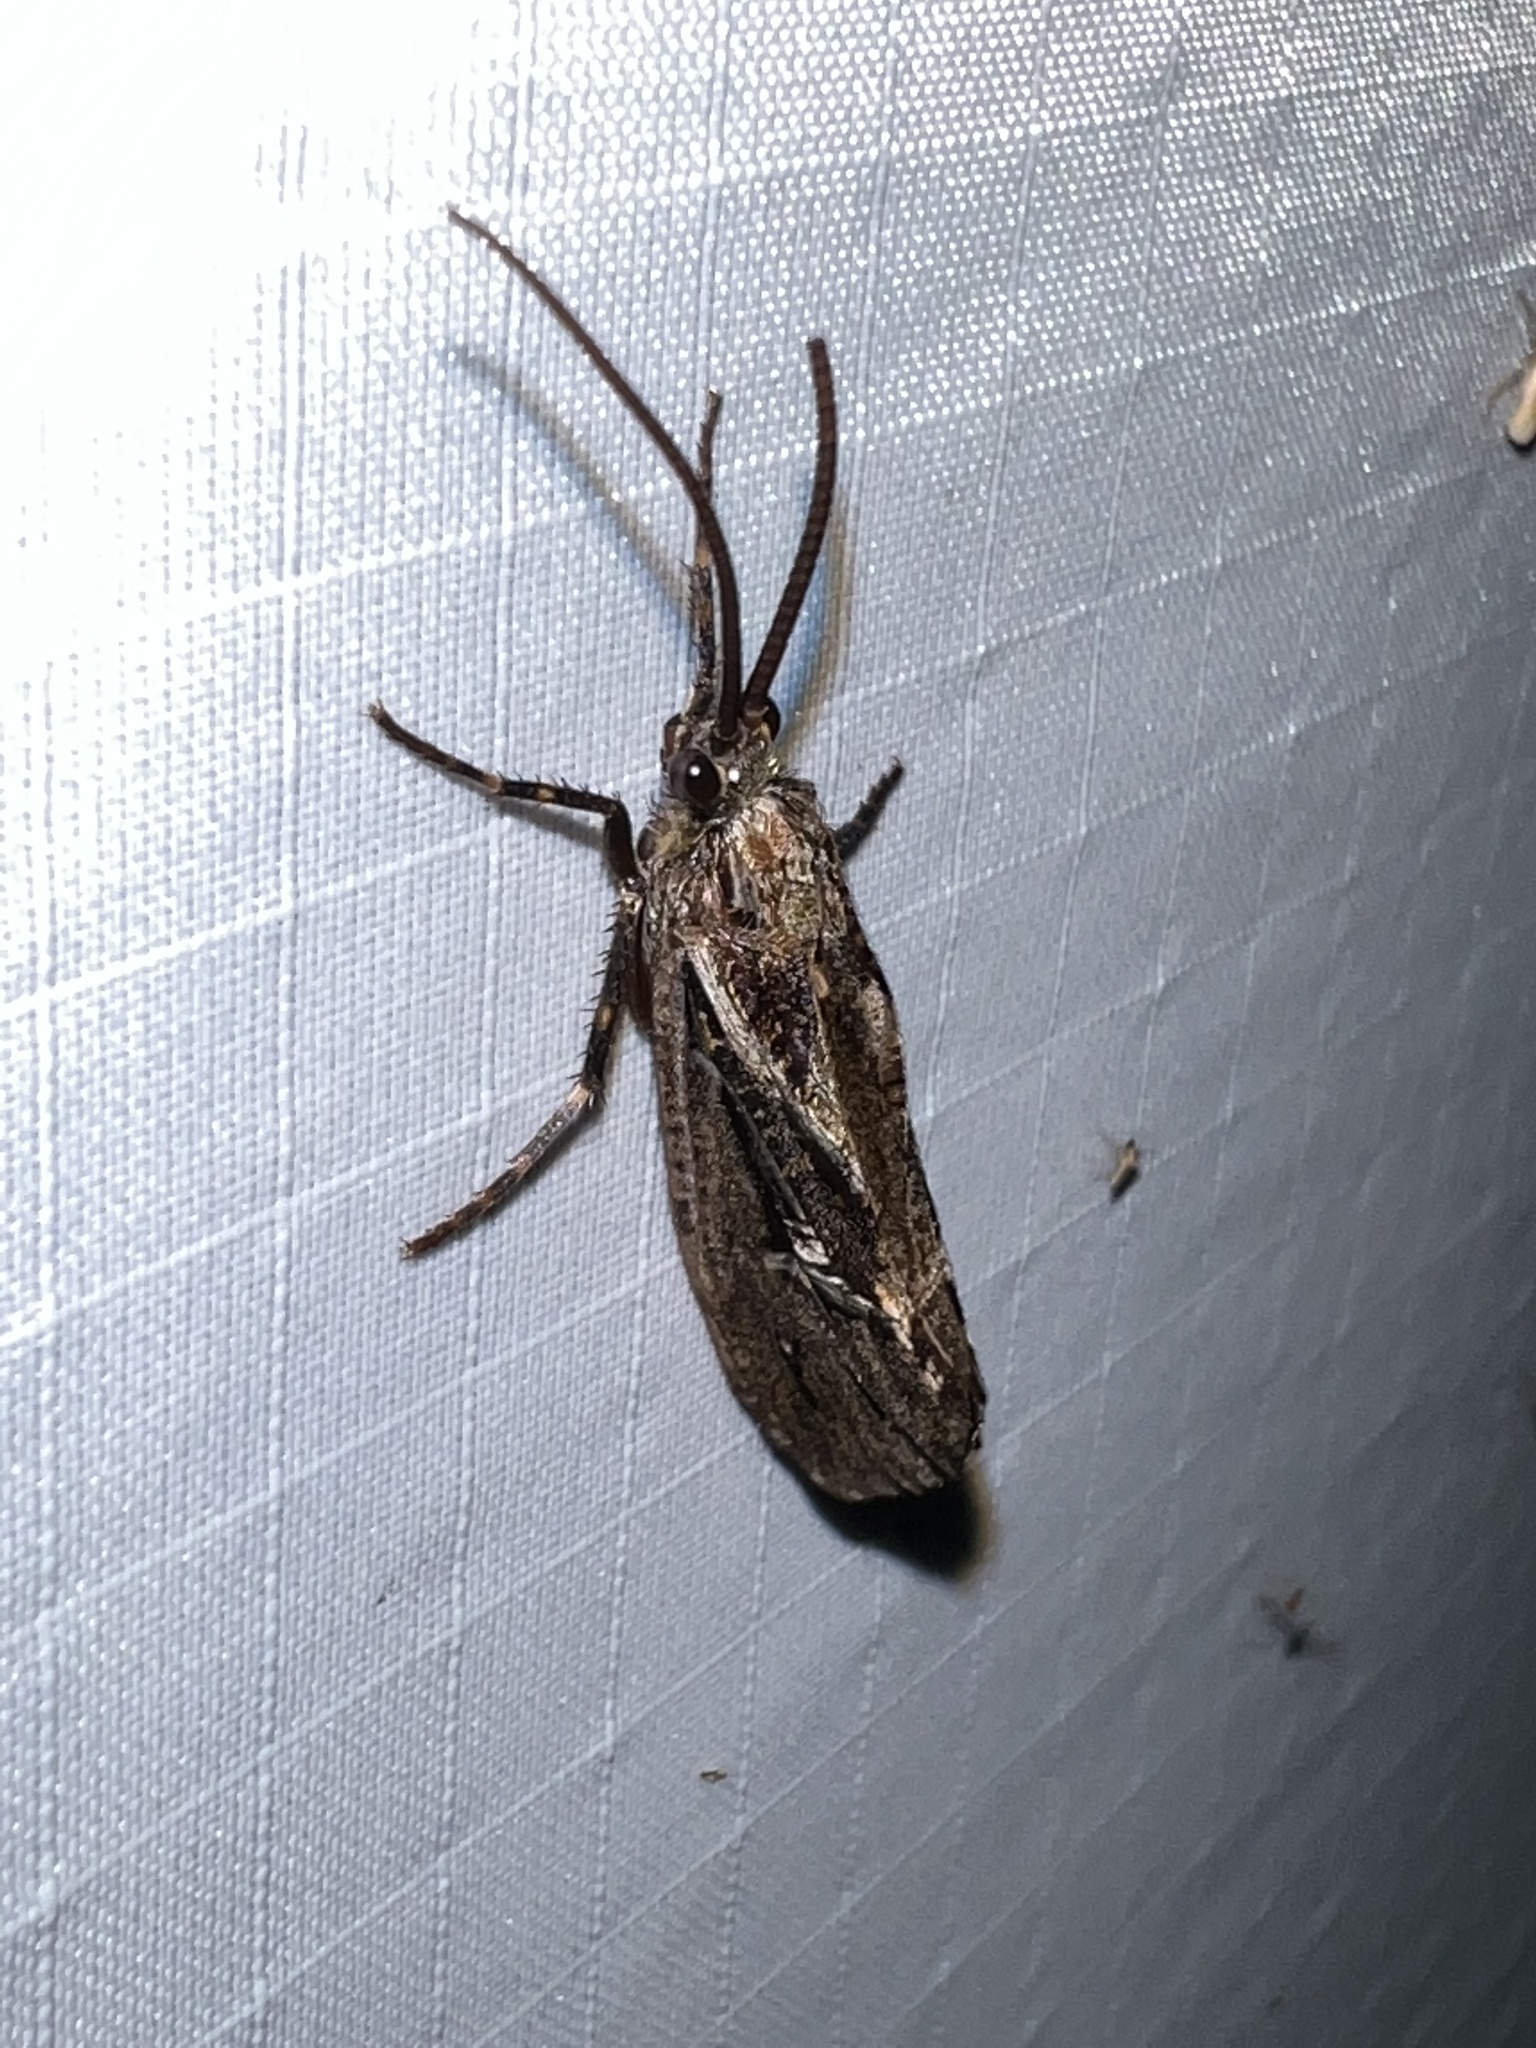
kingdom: Animalia
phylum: Arthropoda
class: Insecta
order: Trichoptera
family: Phryganeidae
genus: Phryganea
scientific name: Phryganea sayi
